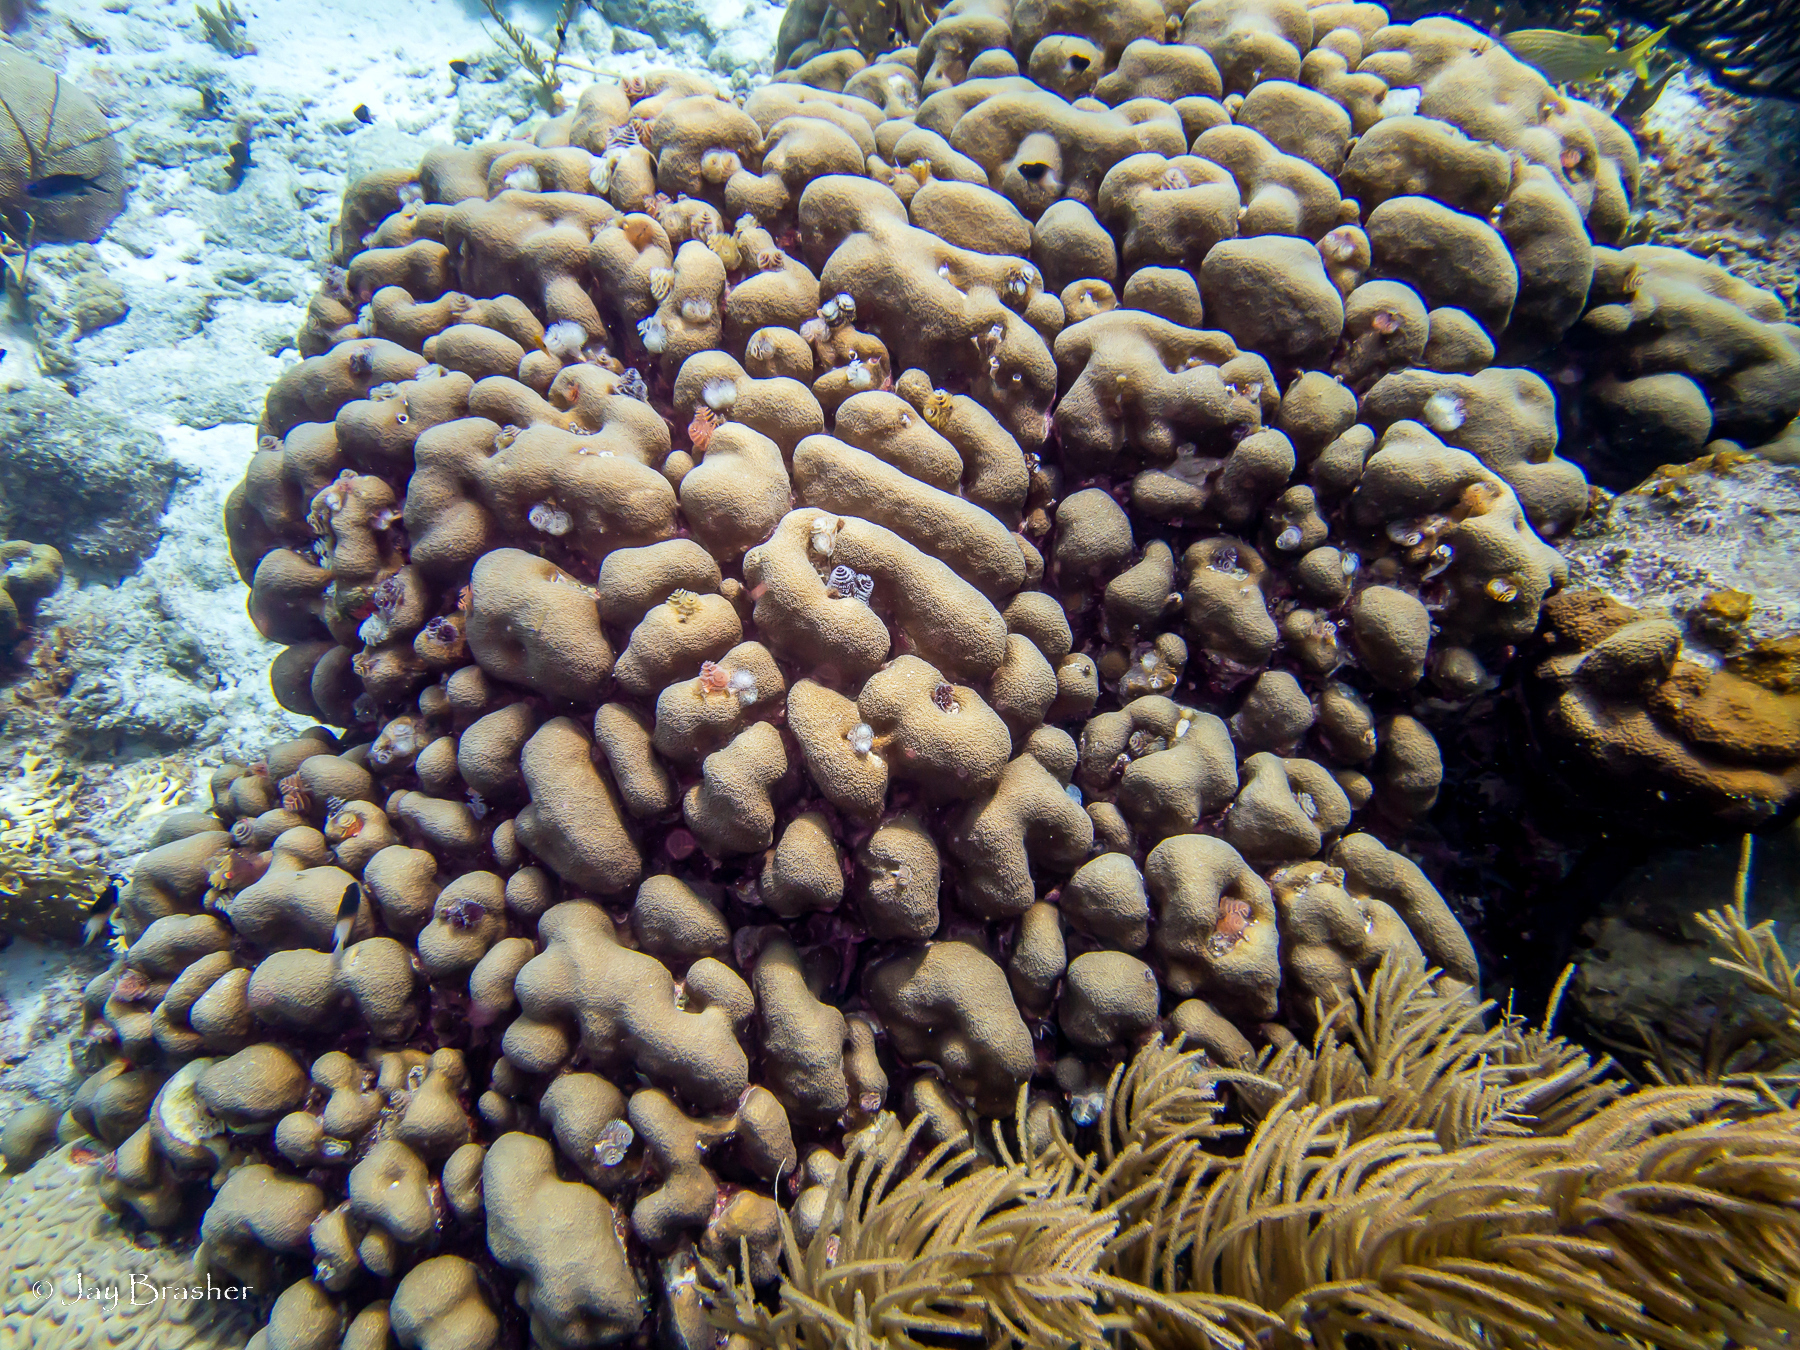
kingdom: Animalia
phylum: Cnidaria
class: Anthozoa
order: Scleractinia
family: Merulinidae
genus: Orbicella
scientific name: Orbicella annularis
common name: Boulder star coral
